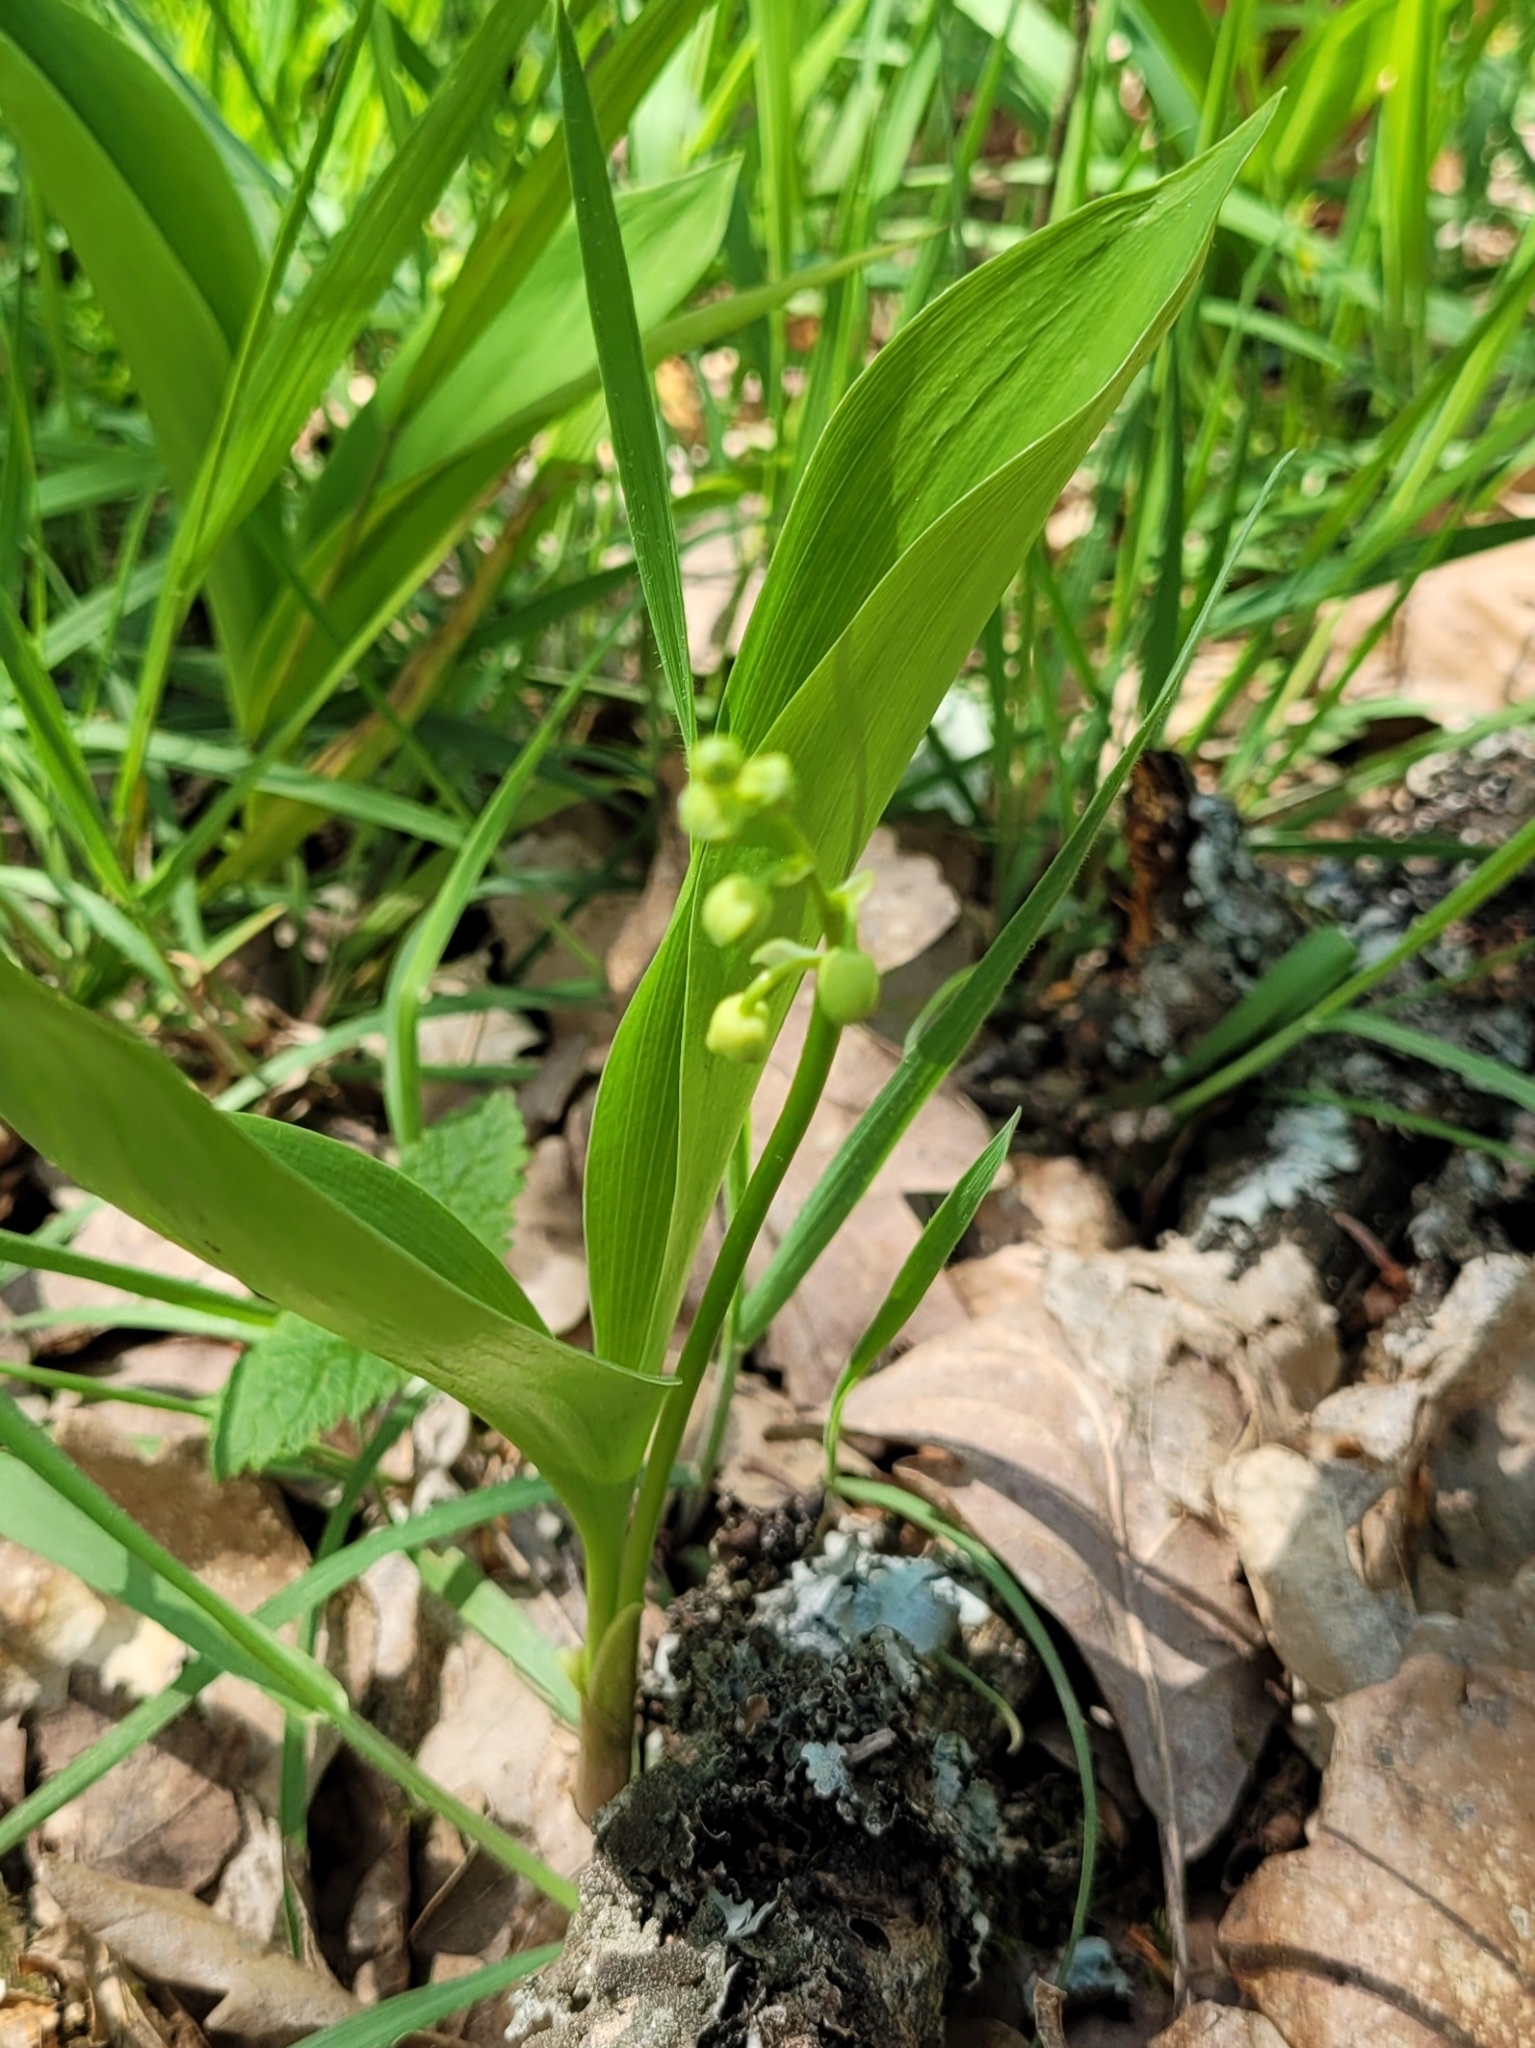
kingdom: Plantae
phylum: Tracheophyta
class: Liliopsida
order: Asparagales
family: Asparagaceae
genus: Convallaria
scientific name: Convallaria majalis
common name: Lily-of-the-valley
